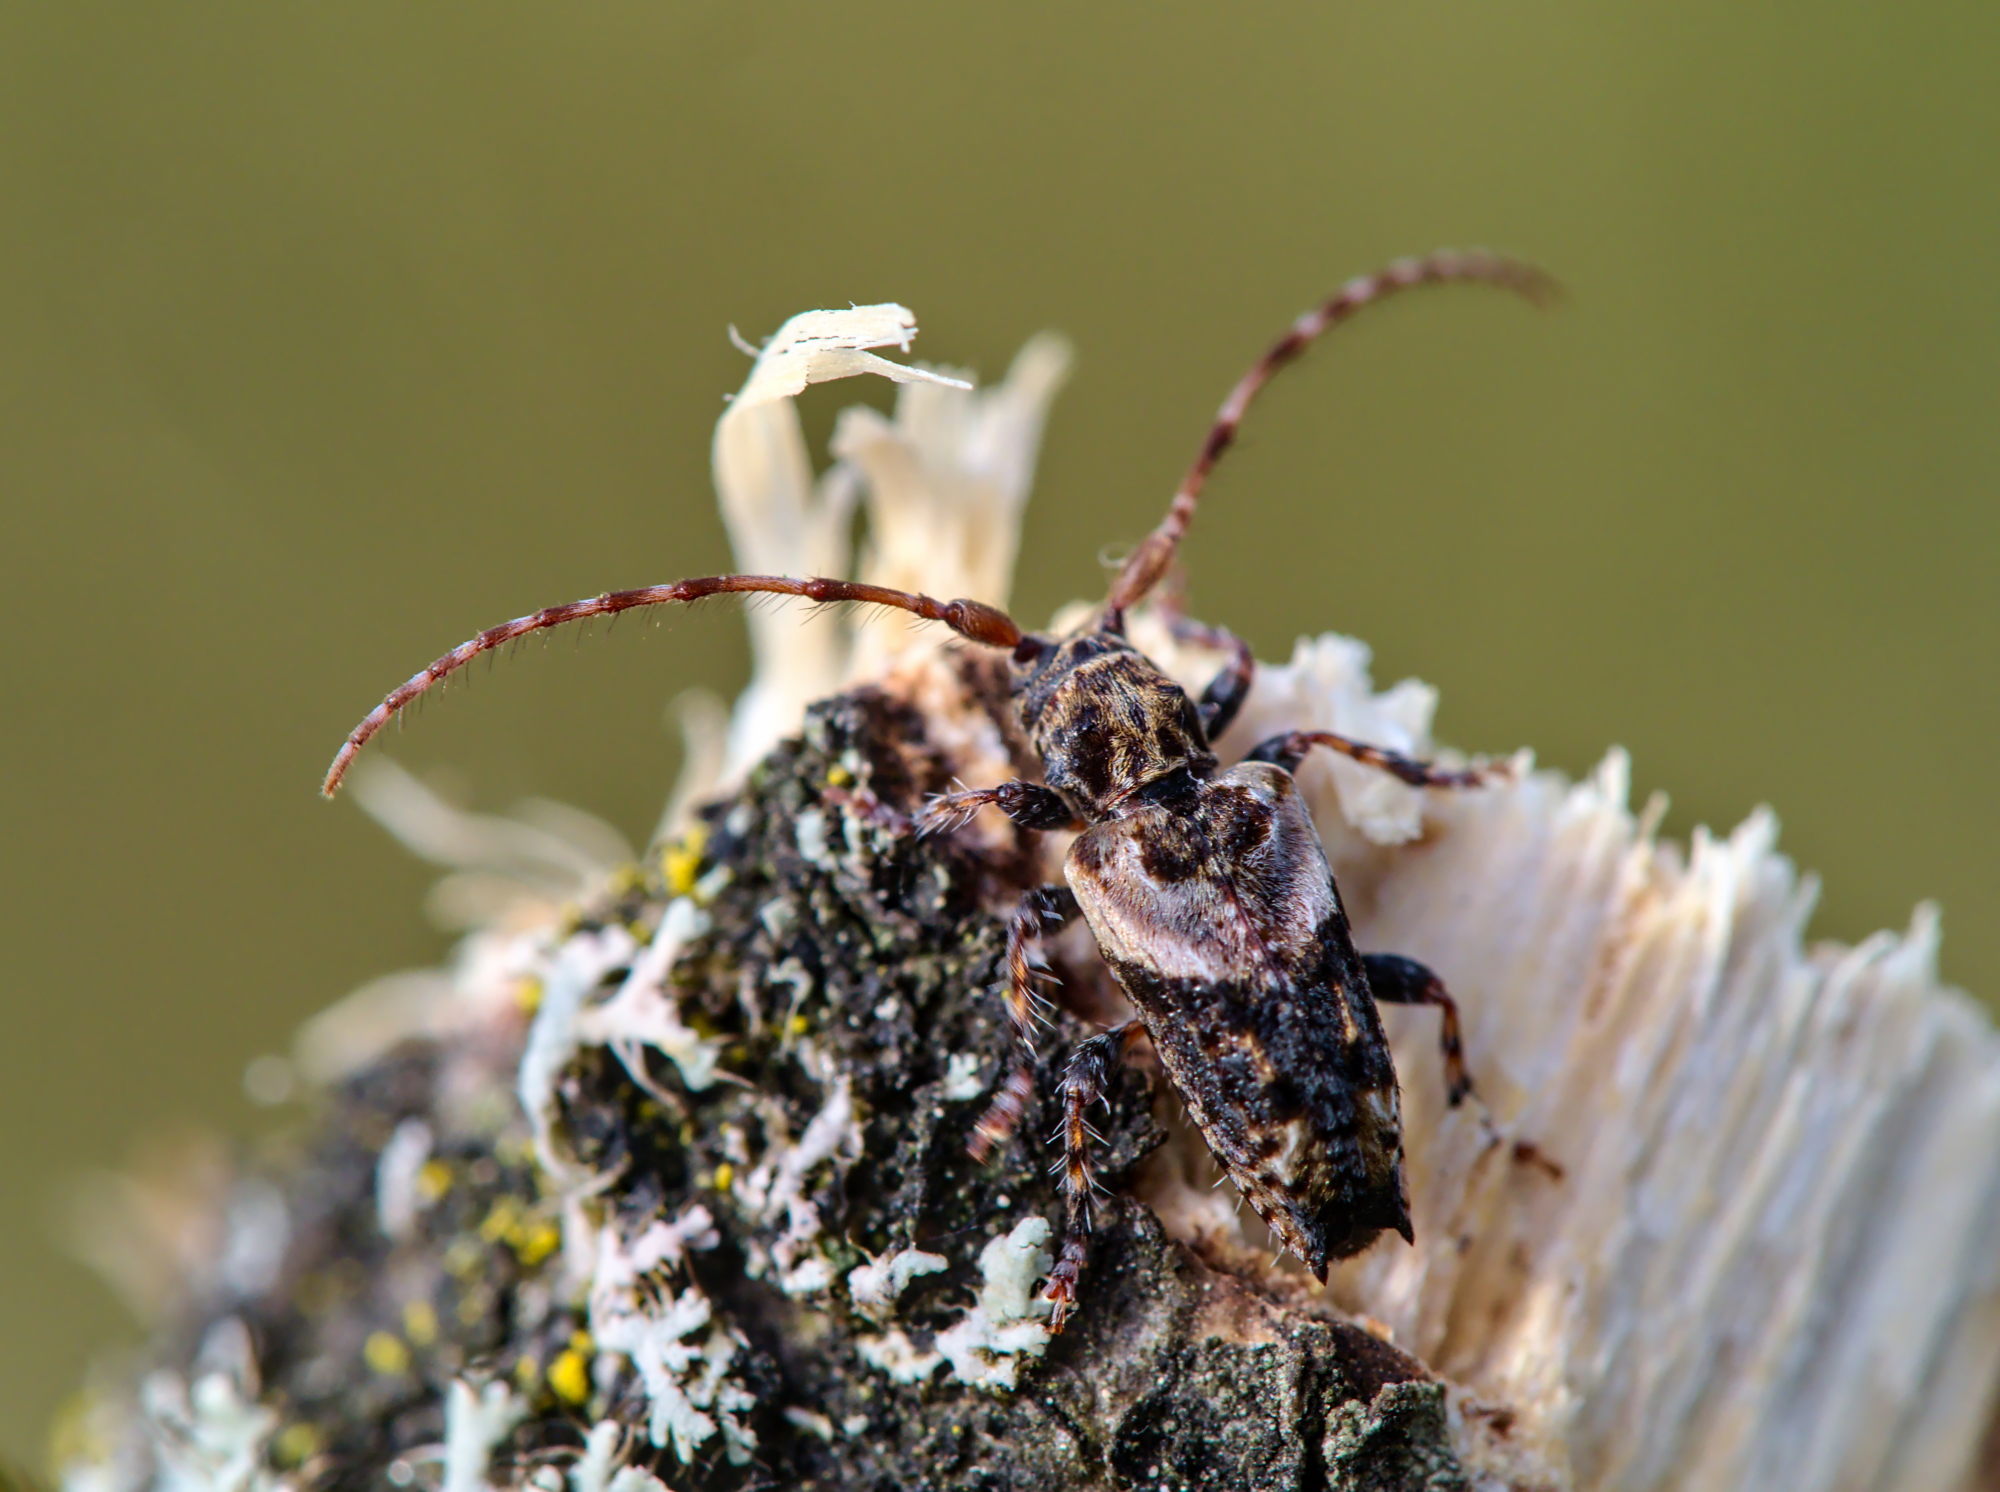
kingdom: Animalia
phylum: Arthropoda
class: Insecta
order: Coleoptera
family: Cerambycidae
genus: Pogonocherus
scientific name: Pogonocherus hispidus
